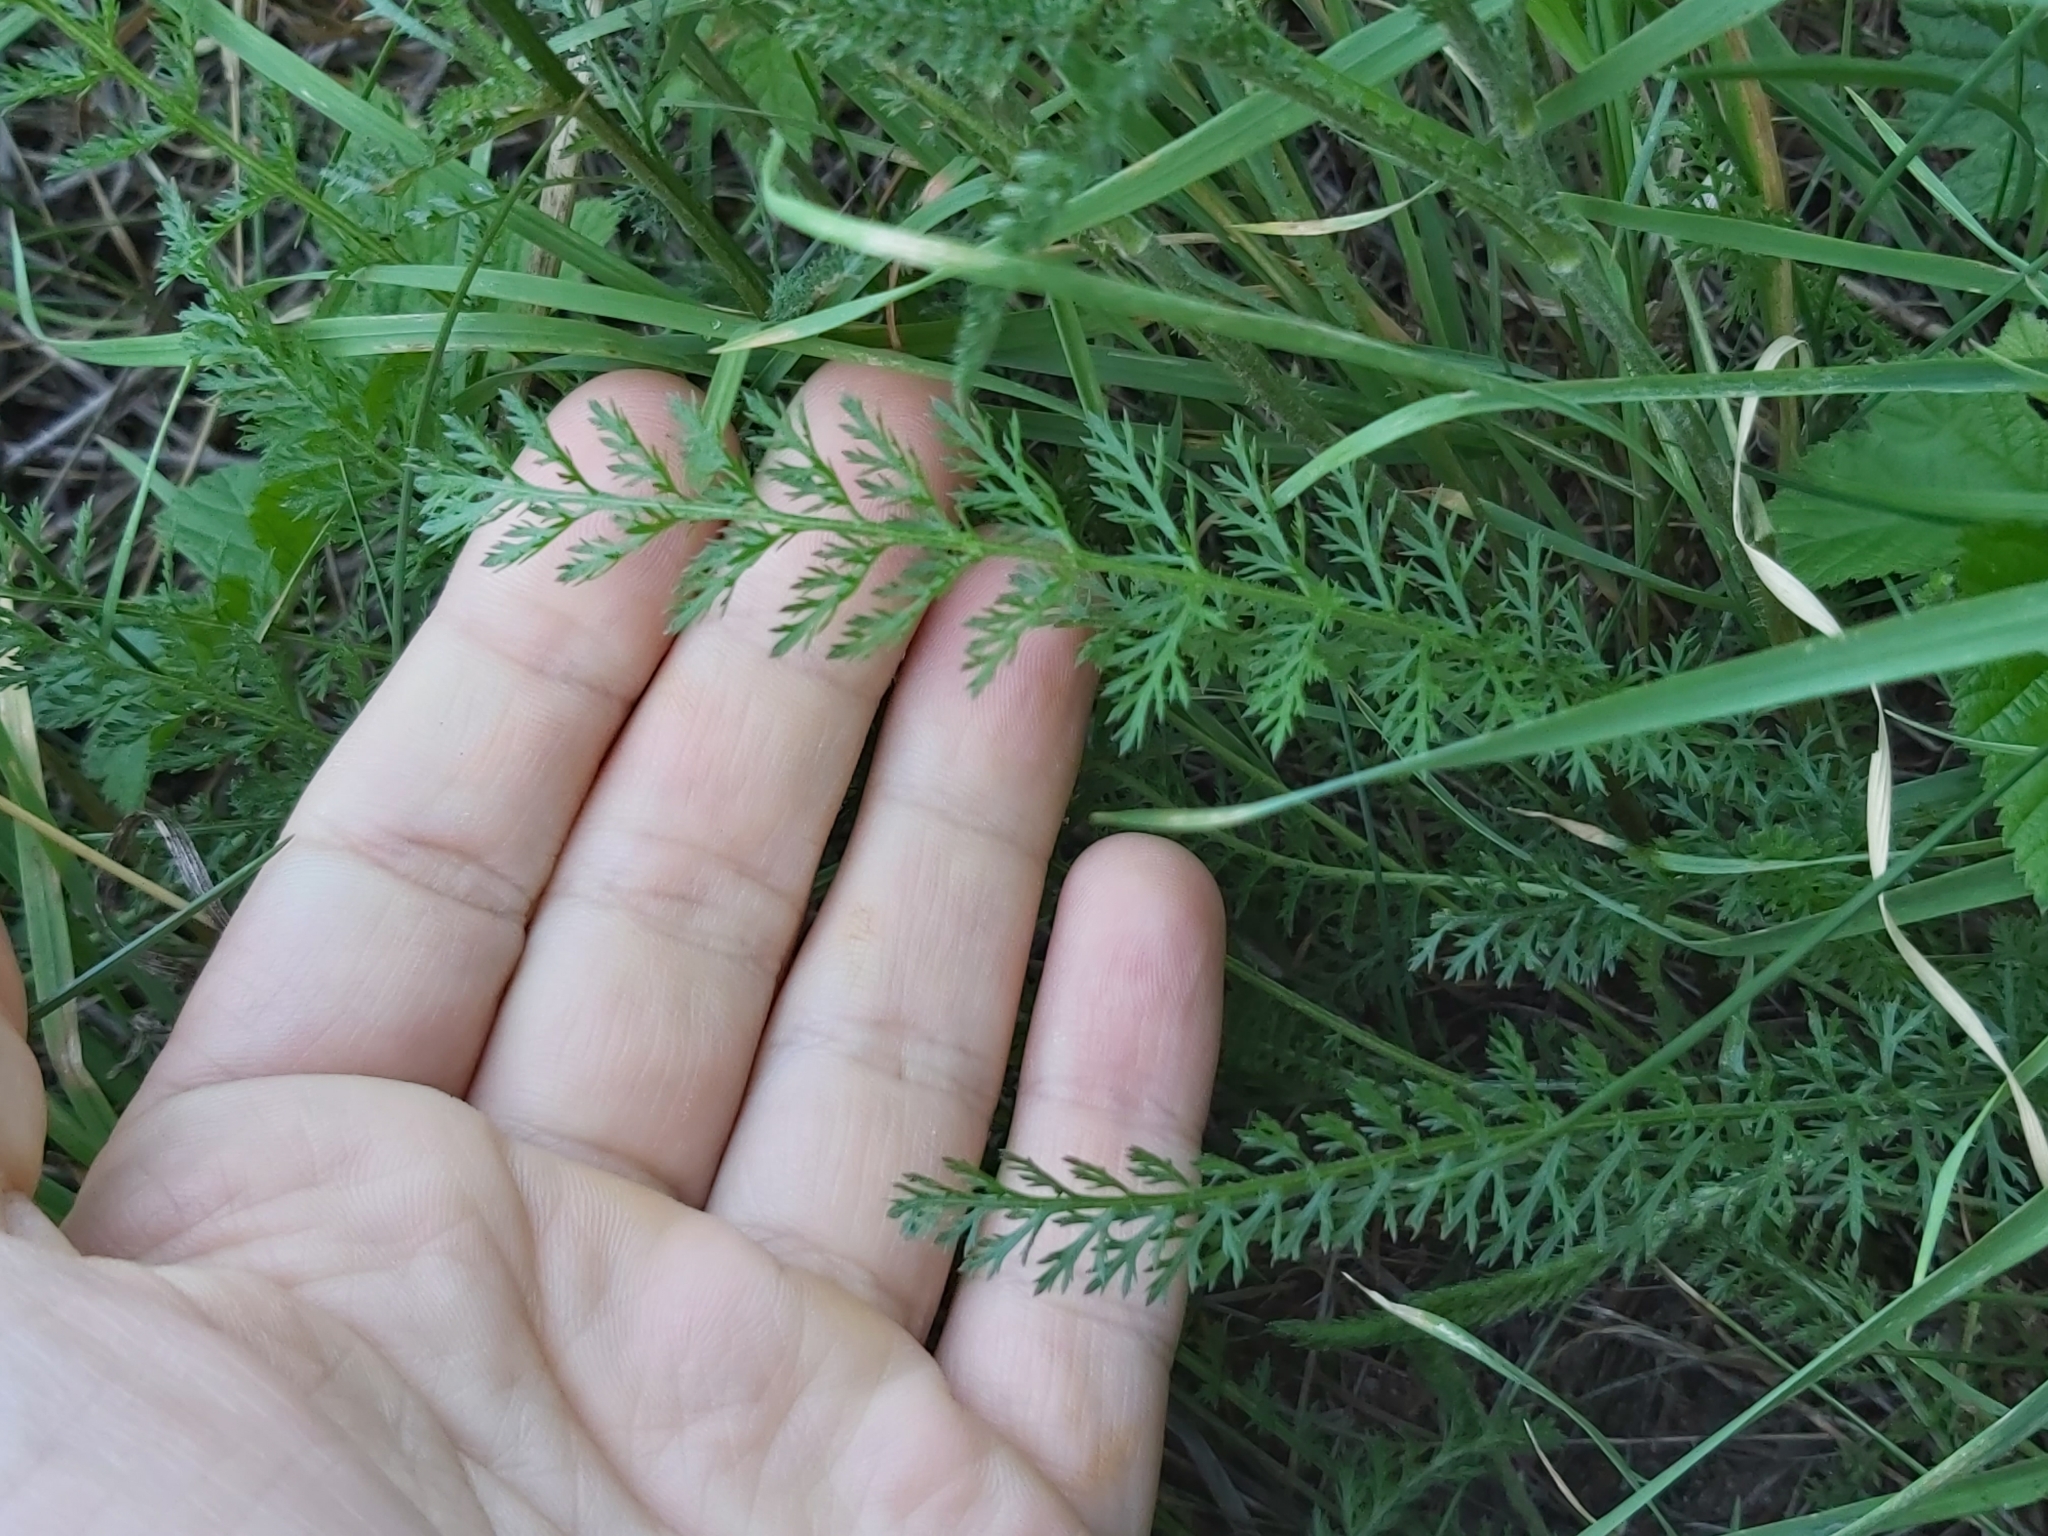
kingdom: Plantae
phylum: Tracheophyta
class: Magnoliopsida
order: Asterales
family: Asteraceae
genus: Achillea
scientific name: Achillea millefolium
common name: Yarrow
